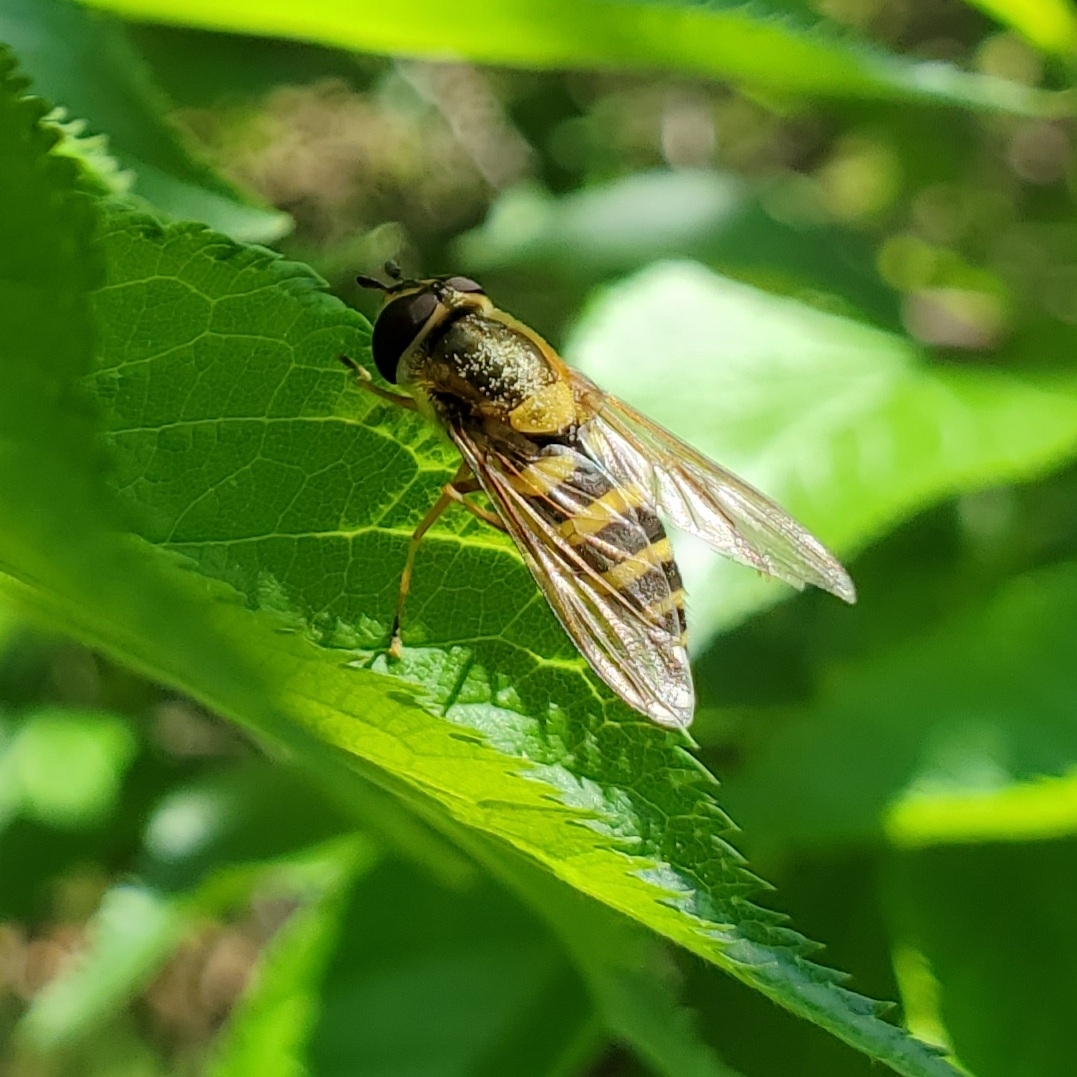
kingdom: Animalia
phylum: Arthropoda
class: Insecta
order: Diptera
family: Syrphidae
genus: Syrphus
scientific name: Syrphus
